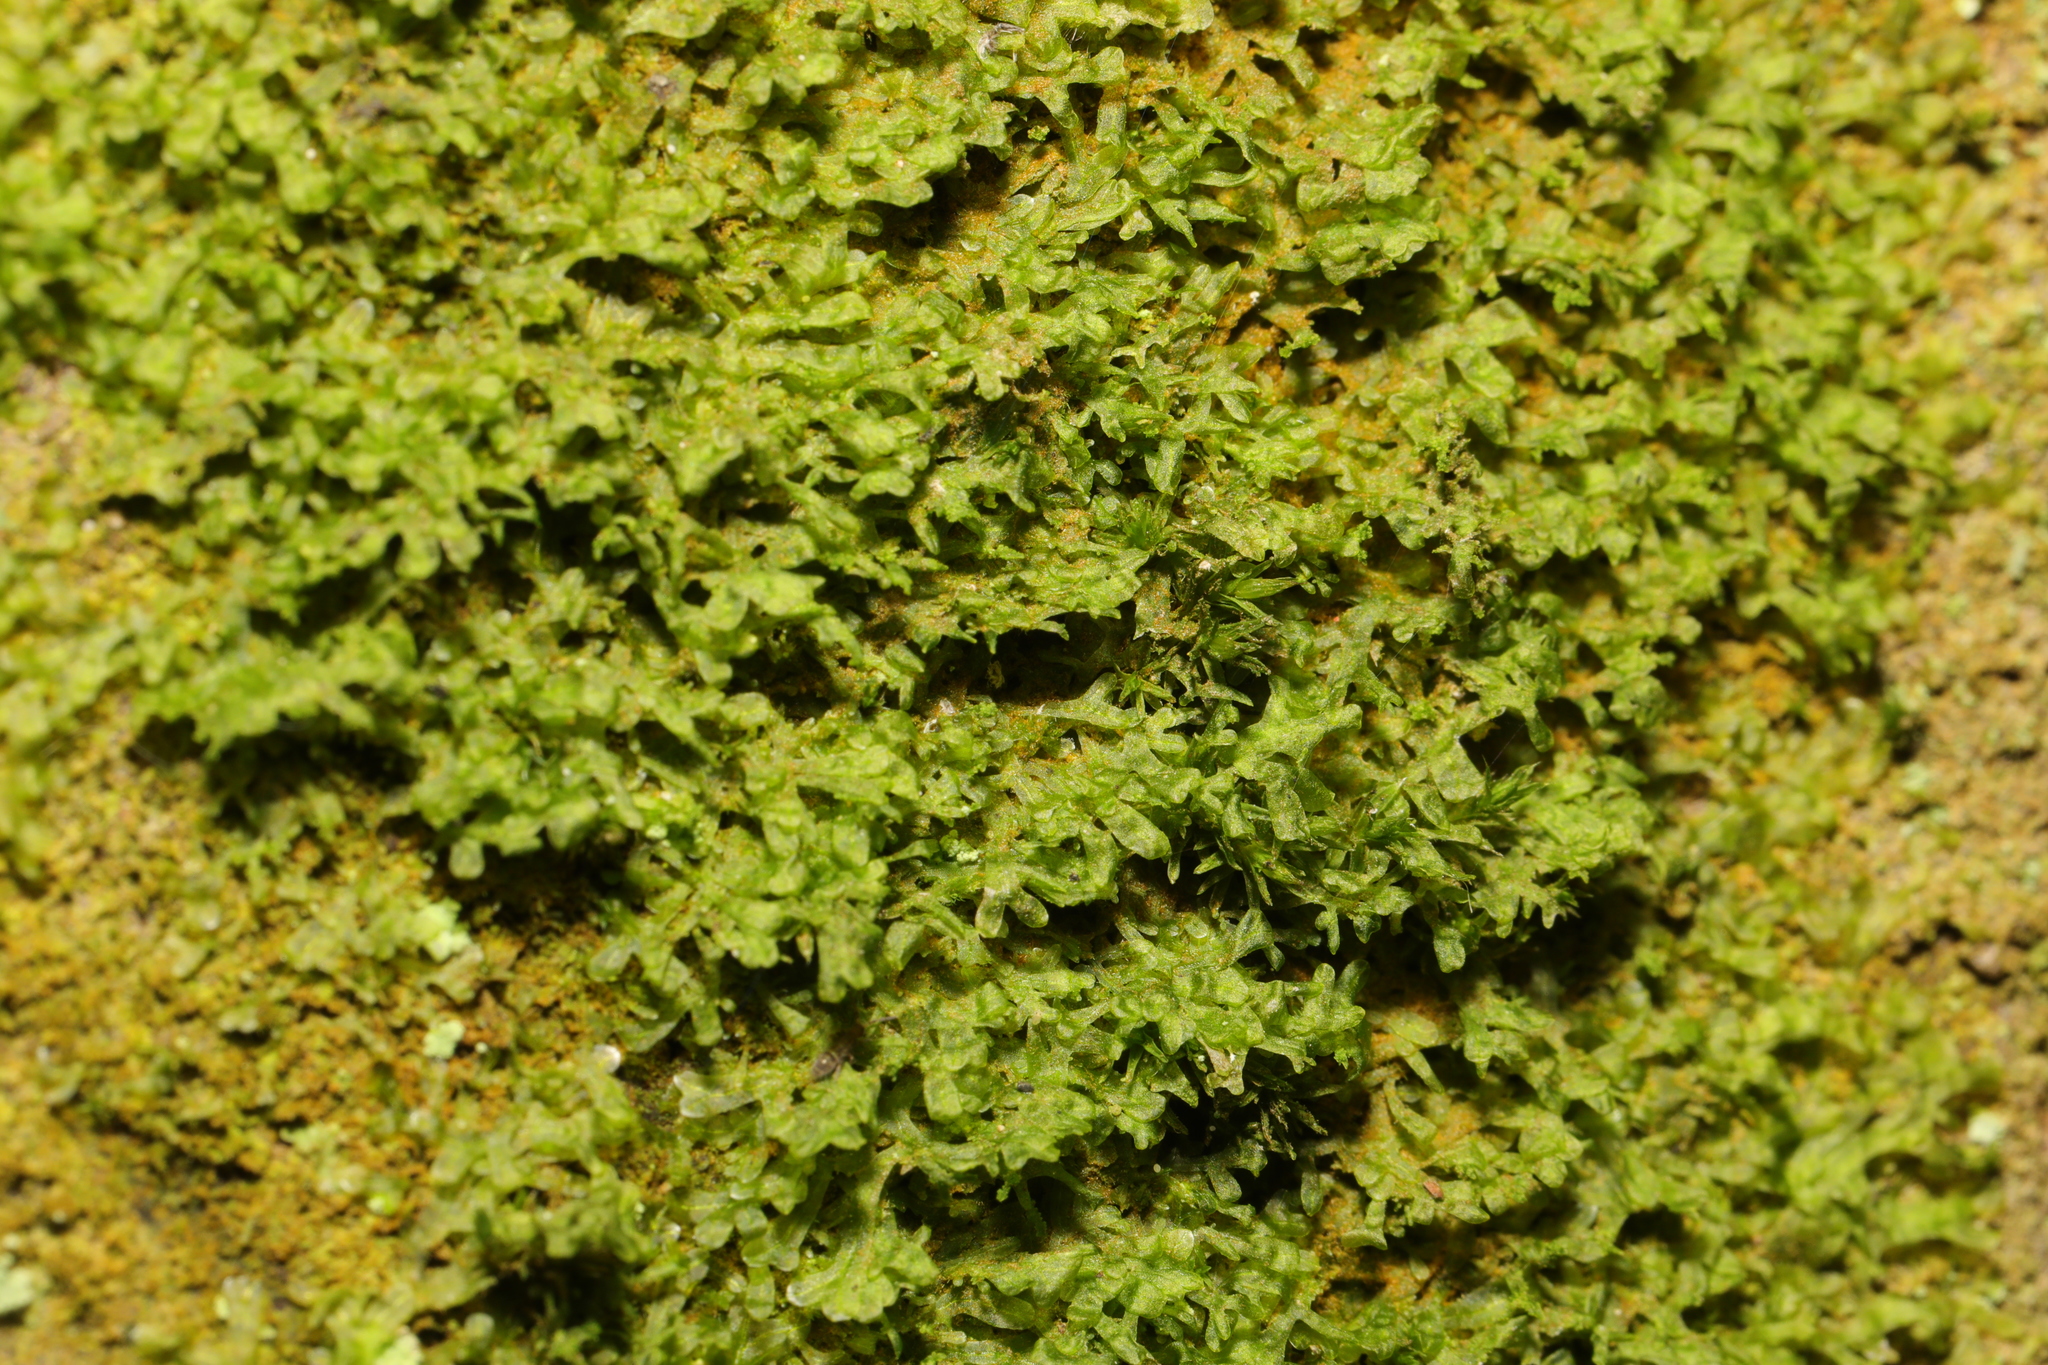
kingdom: Plantae
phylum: Marchantiophyta
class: Jungermanniopsida
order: Metzgeriales
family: Metzgeriaceae
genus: Metzgeria
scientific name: Metzgeria furcata
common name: Forked veilwort
